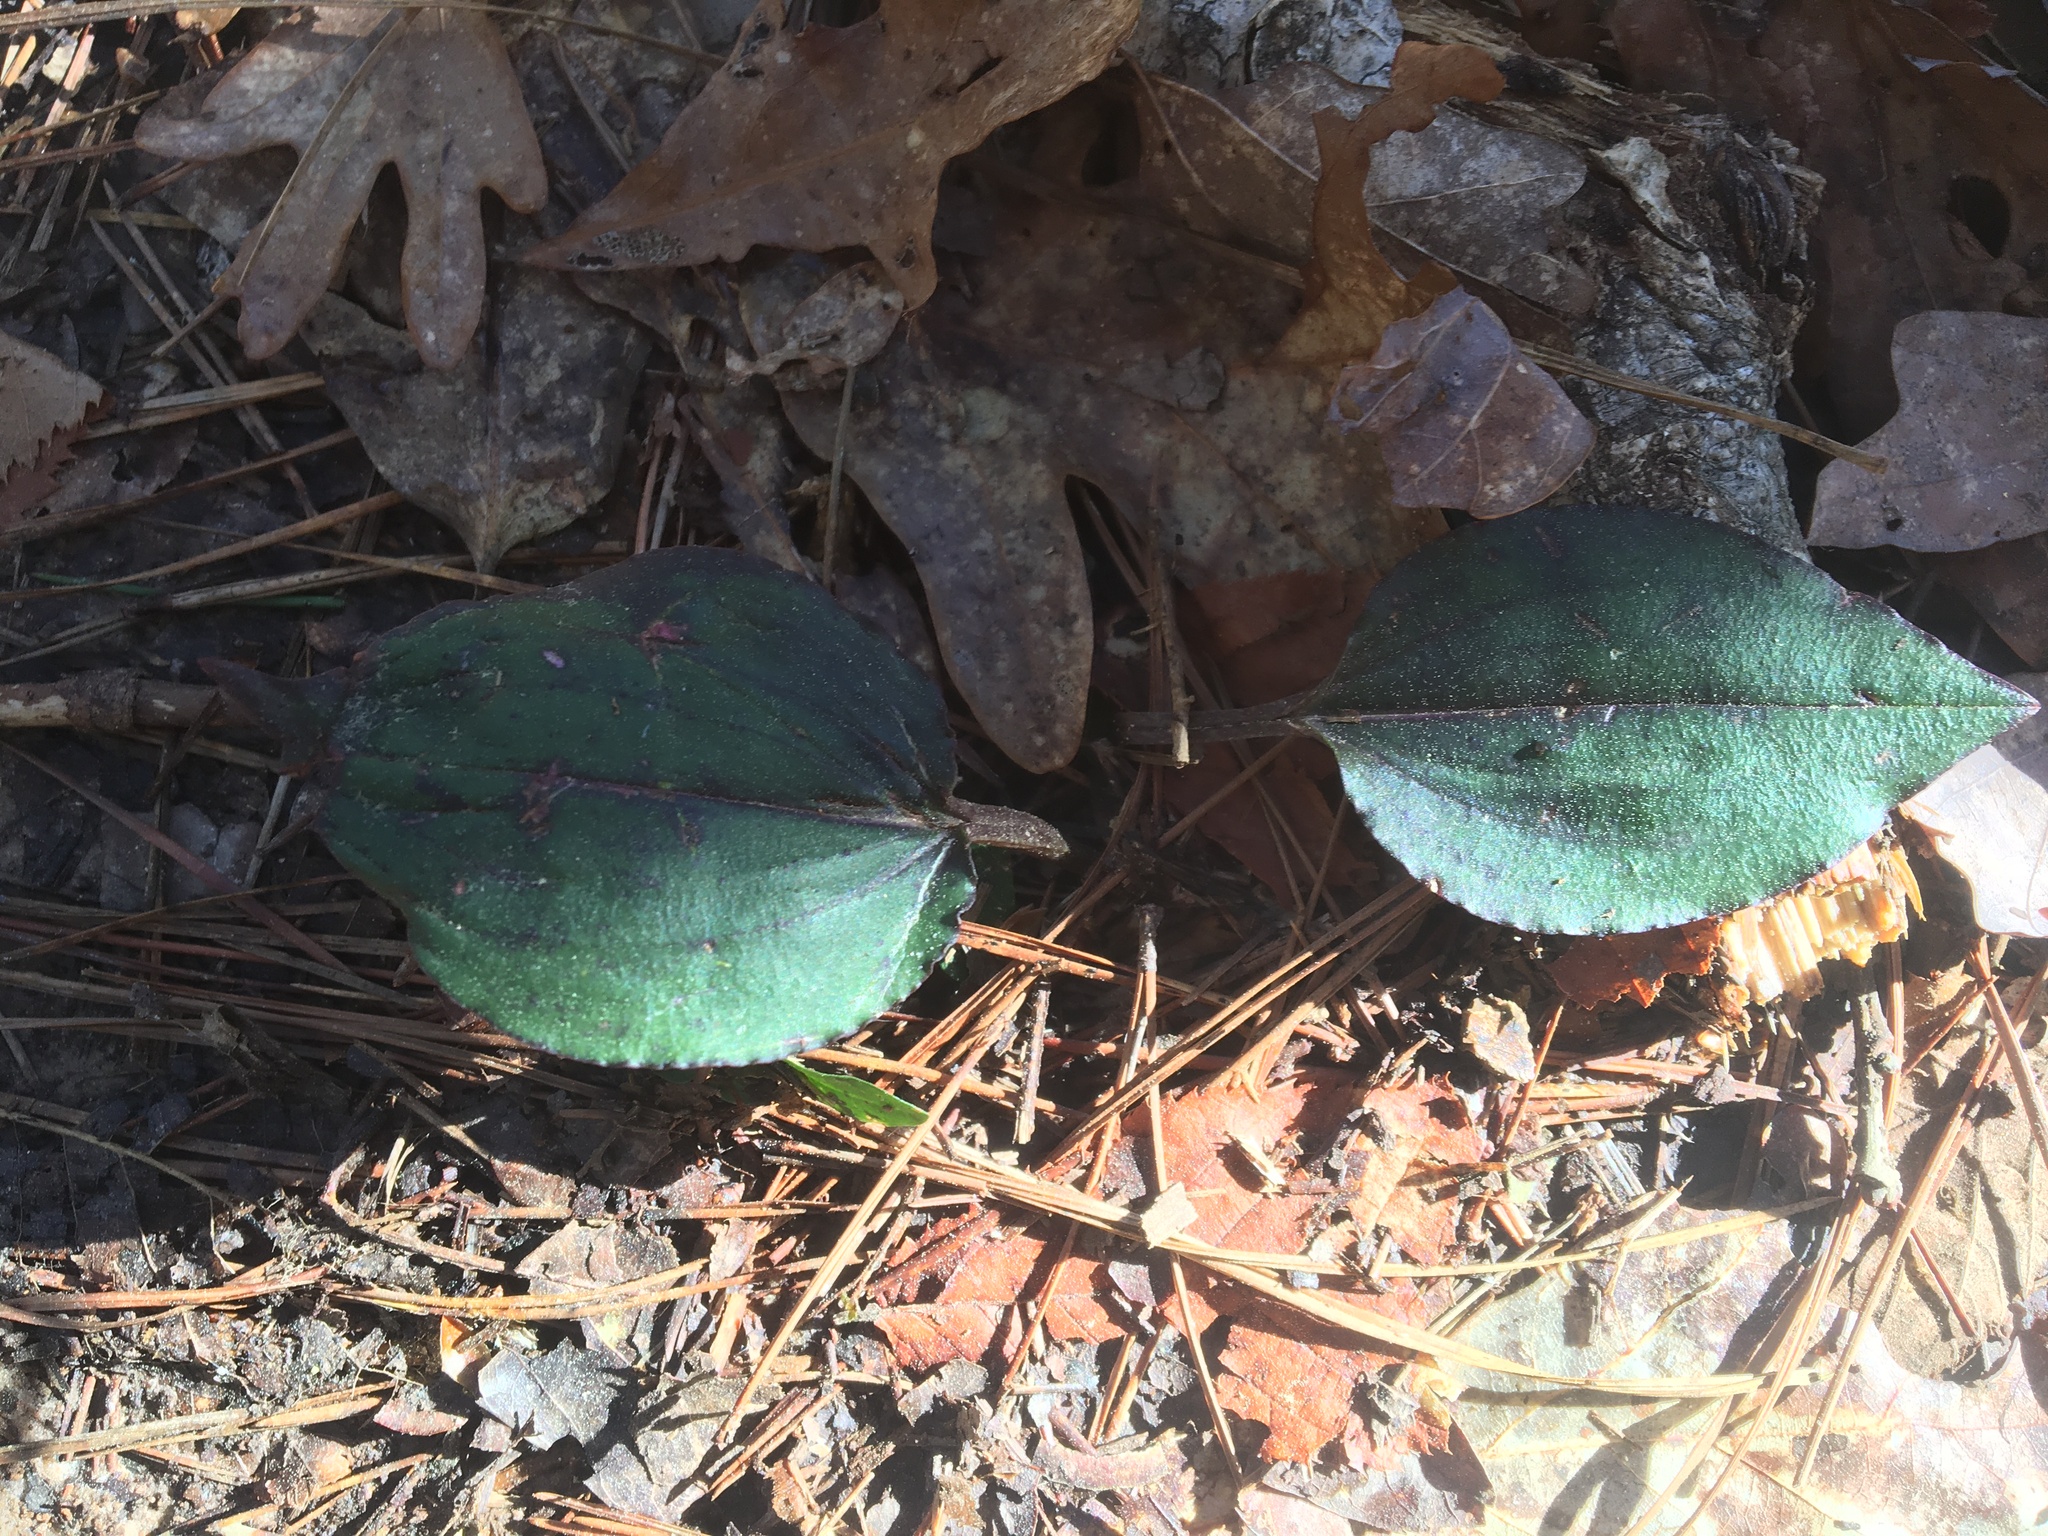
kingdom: Plantae
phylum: Tracheophyta
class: Liliopsida
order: Asparagales
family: Orchidaceae
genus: Tipularia
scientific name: Tipularia discolor
